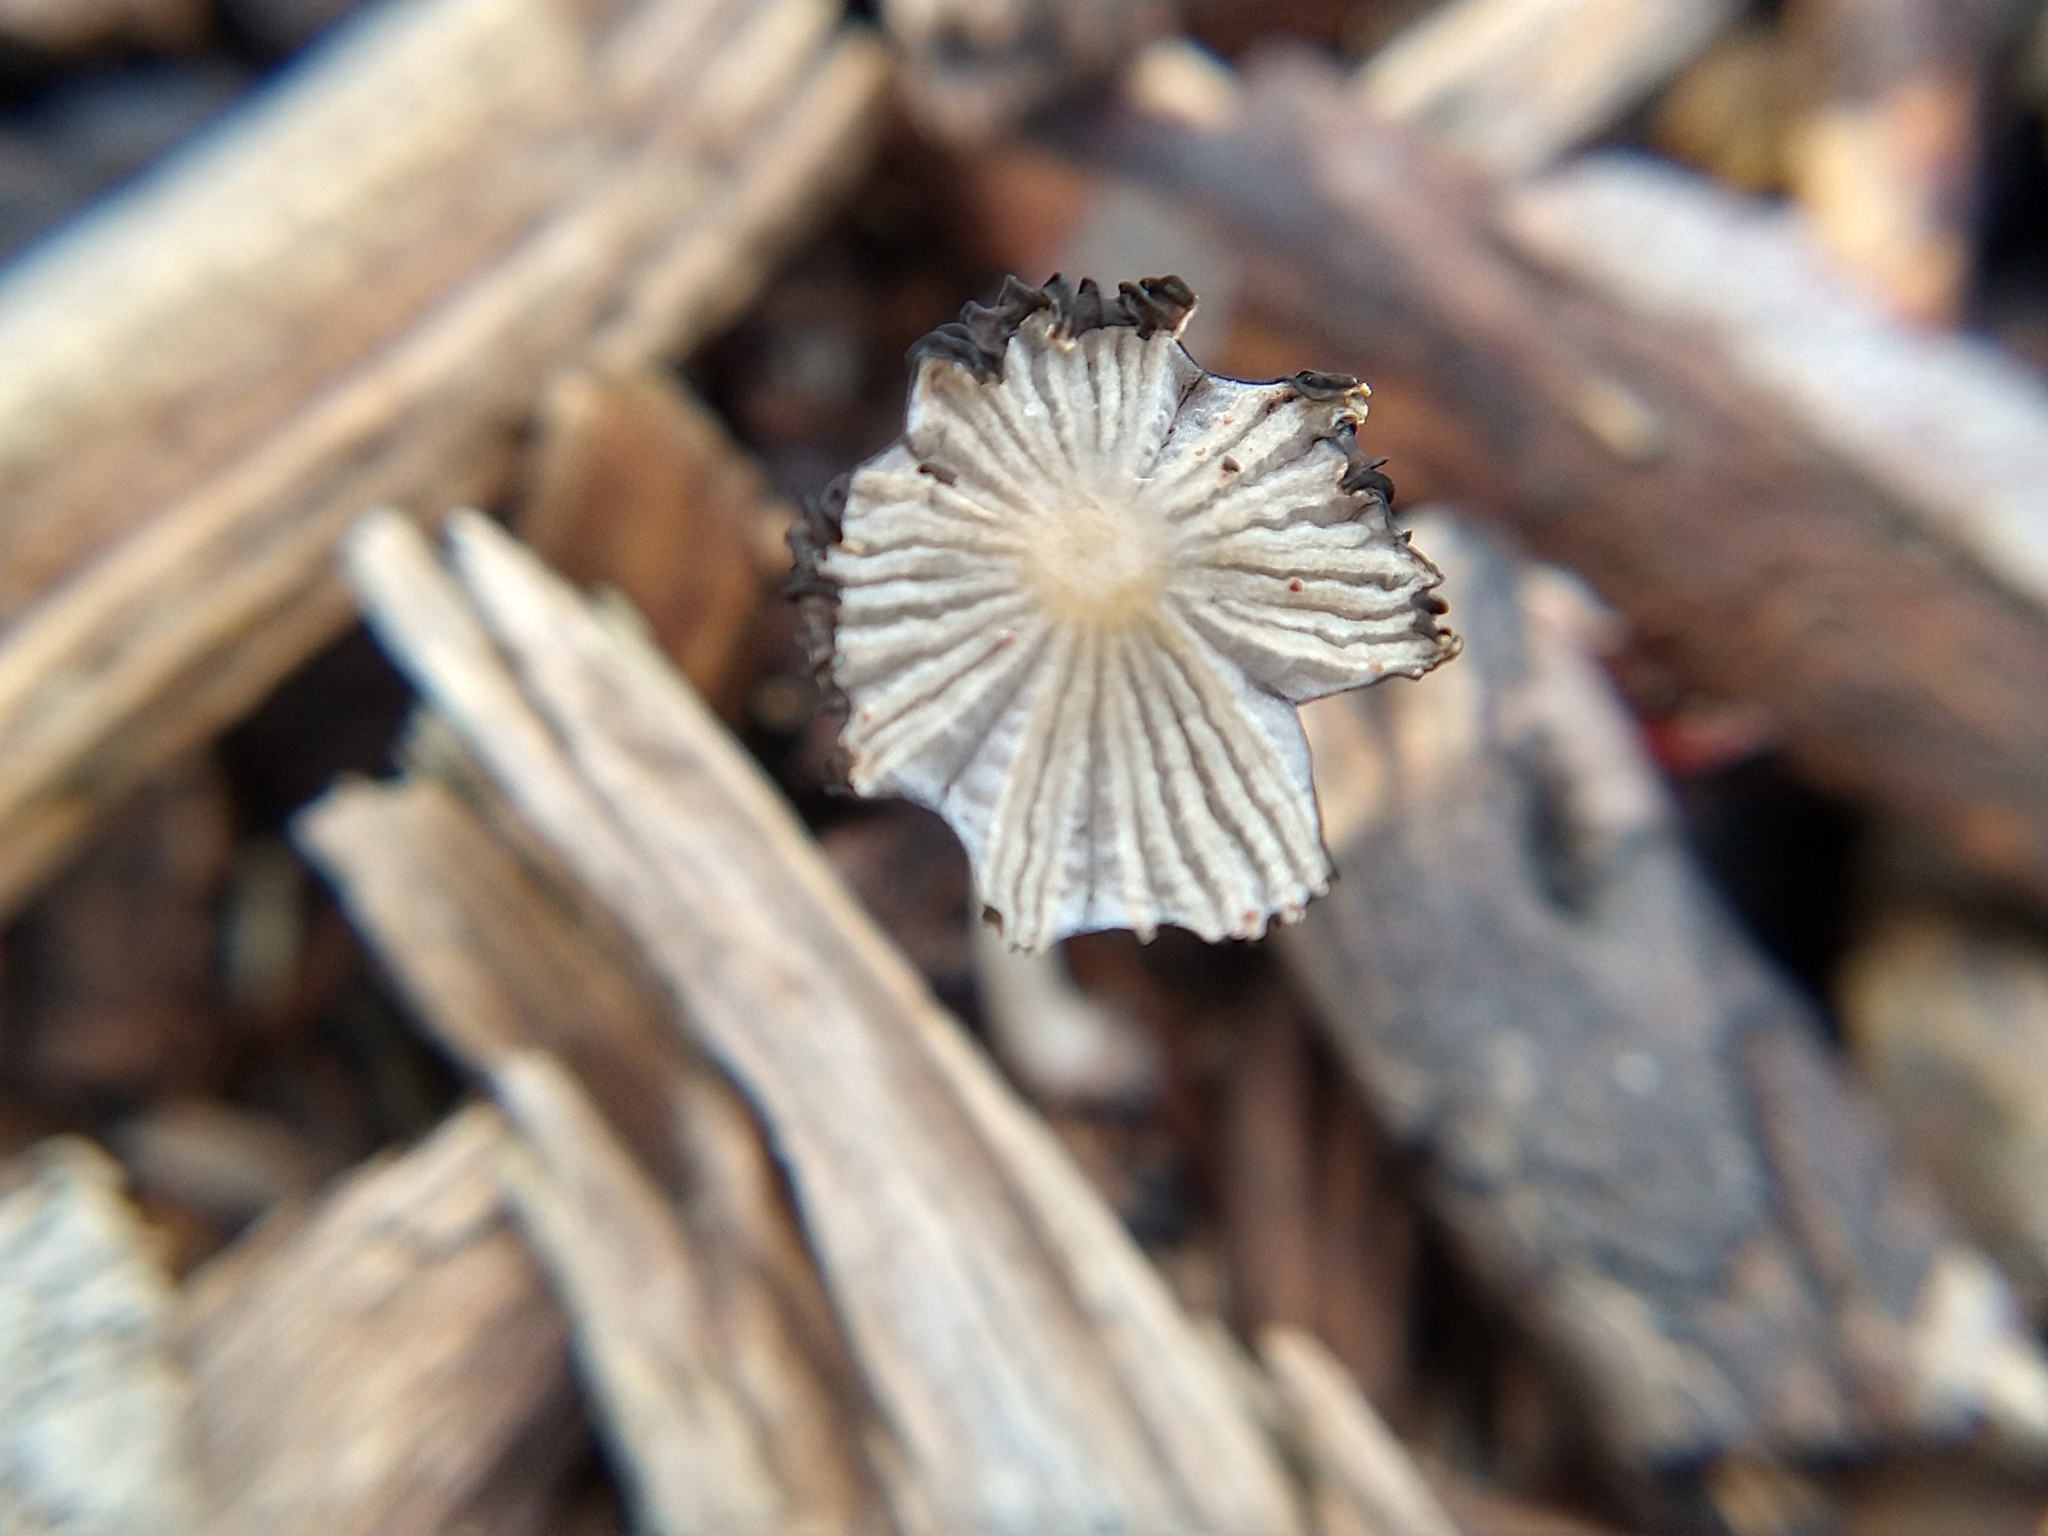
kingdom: Fungi
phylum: Basidiomycota
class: Agaricomycetes
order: Agaricales
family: Psathyrellaceae
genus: Coprinellus
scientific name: Coprinellus
